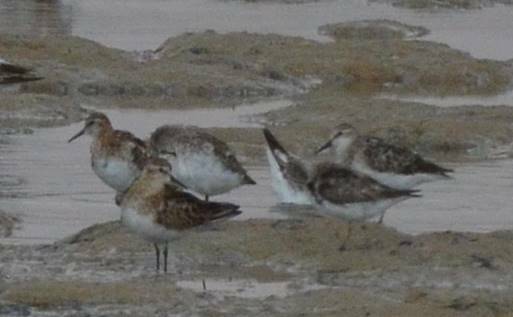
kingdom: Animalia
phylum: Chordata
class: Aves
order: Charadriiformes
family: Scolopacidae
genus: Calidris
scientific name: Calidris minuta
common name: Little stint
